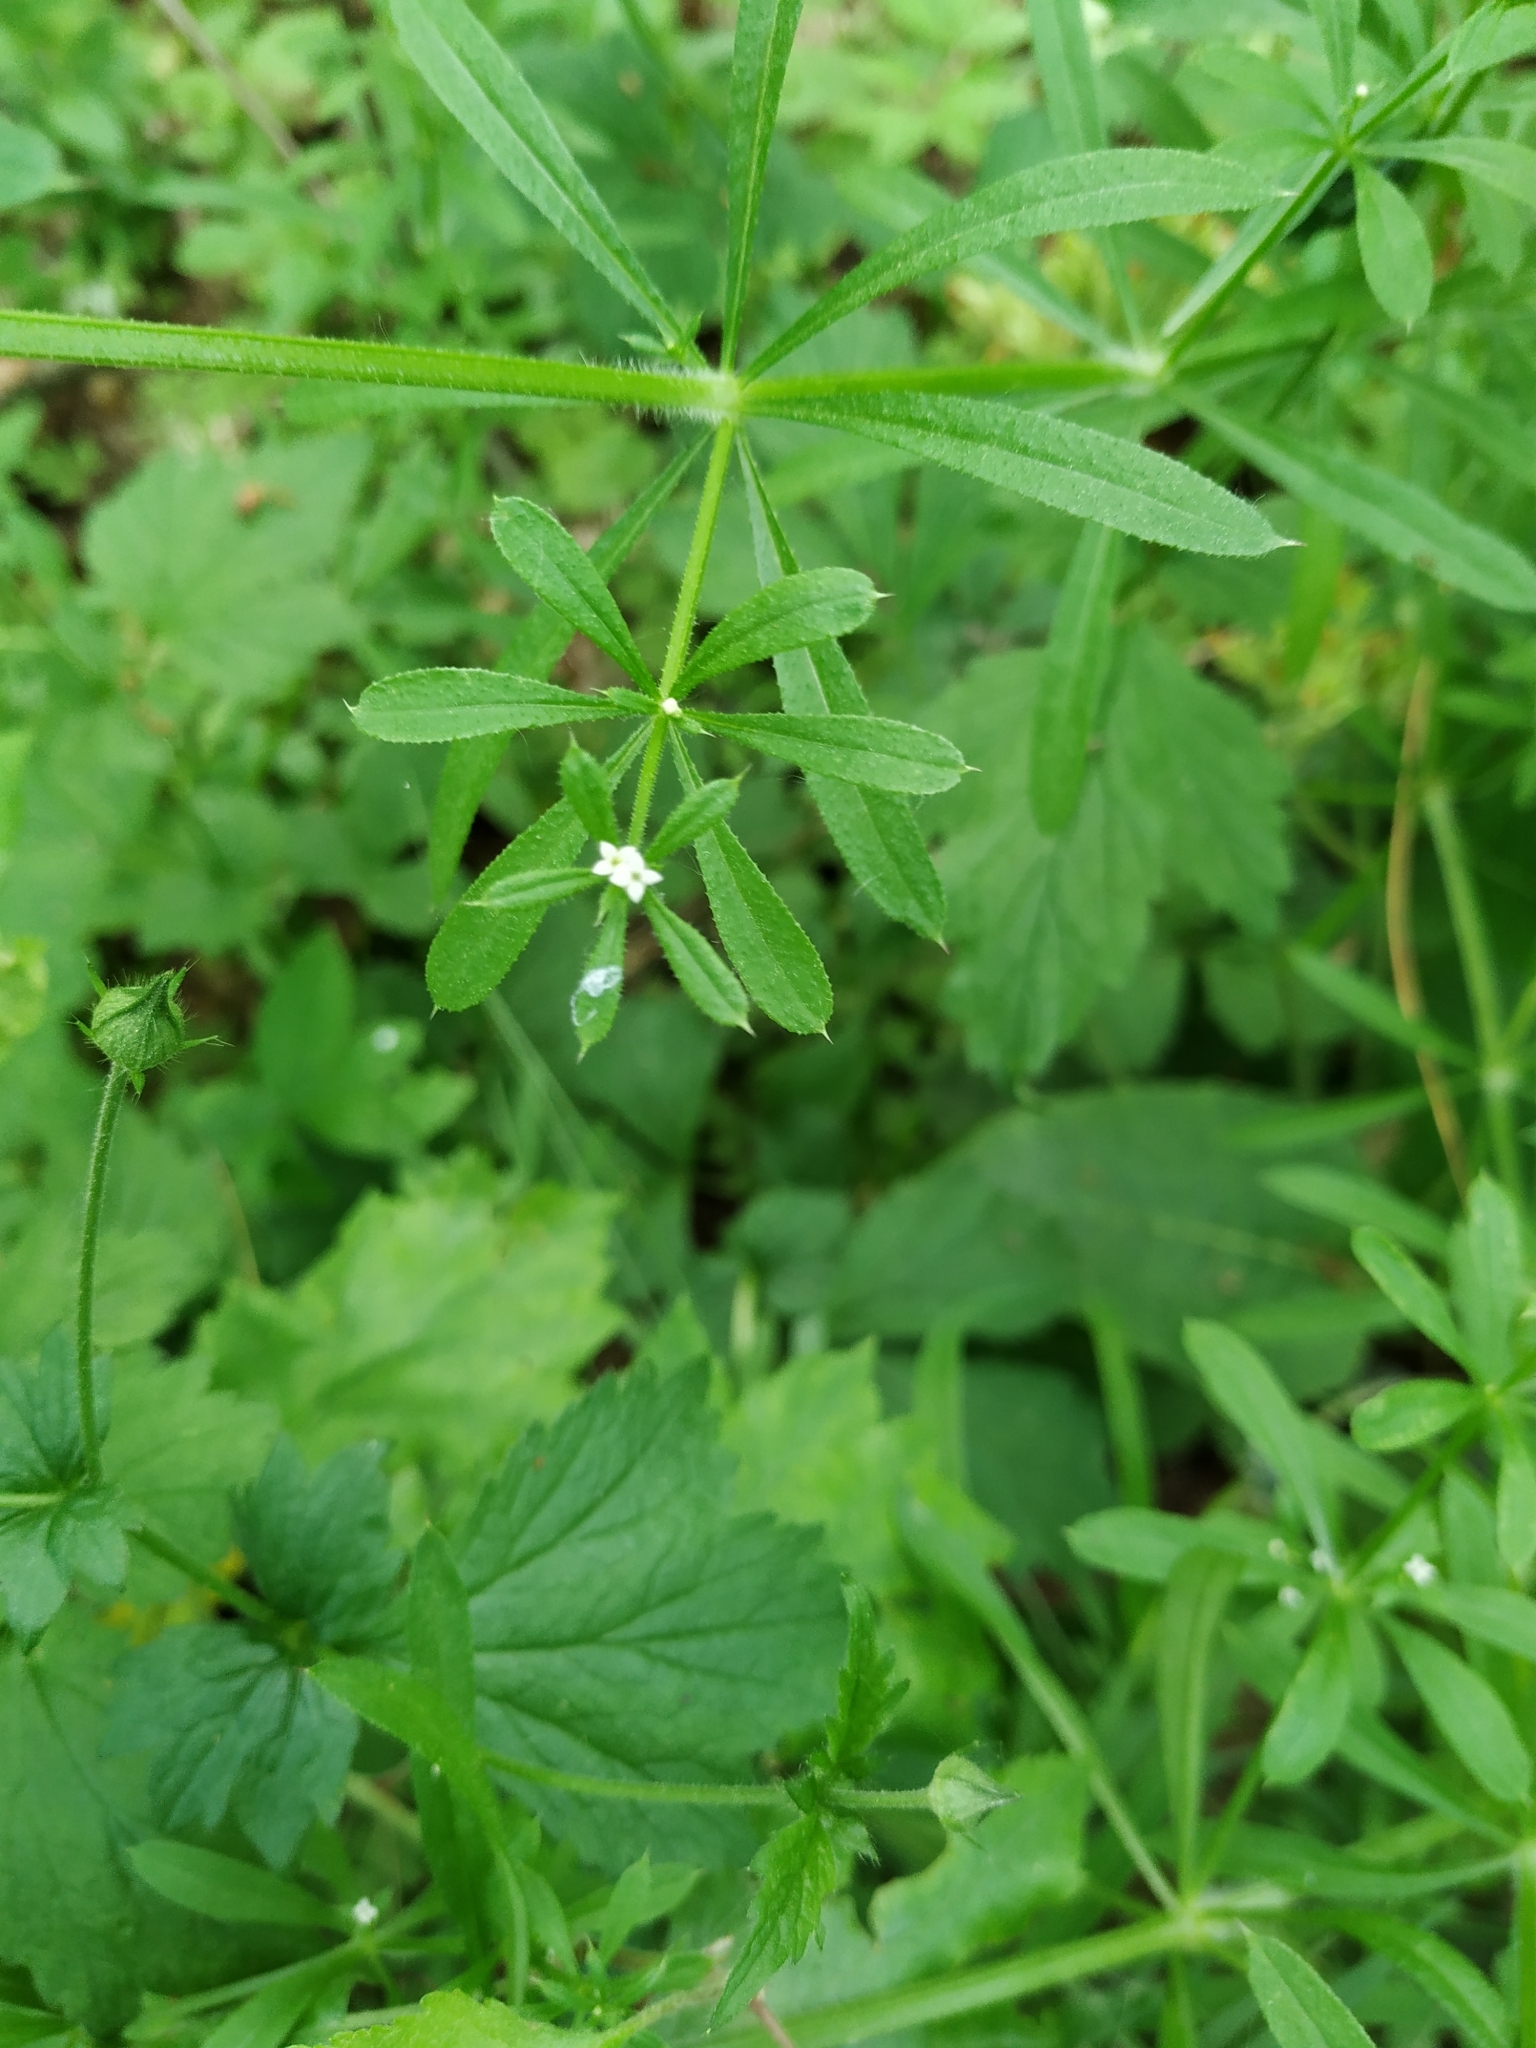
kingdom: Plantae
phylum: Tracheophyta
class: Magnoliopsida
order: Gentianales
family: Rubiaceae
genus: Galium
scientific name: Galium aparine
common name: Cleavers
